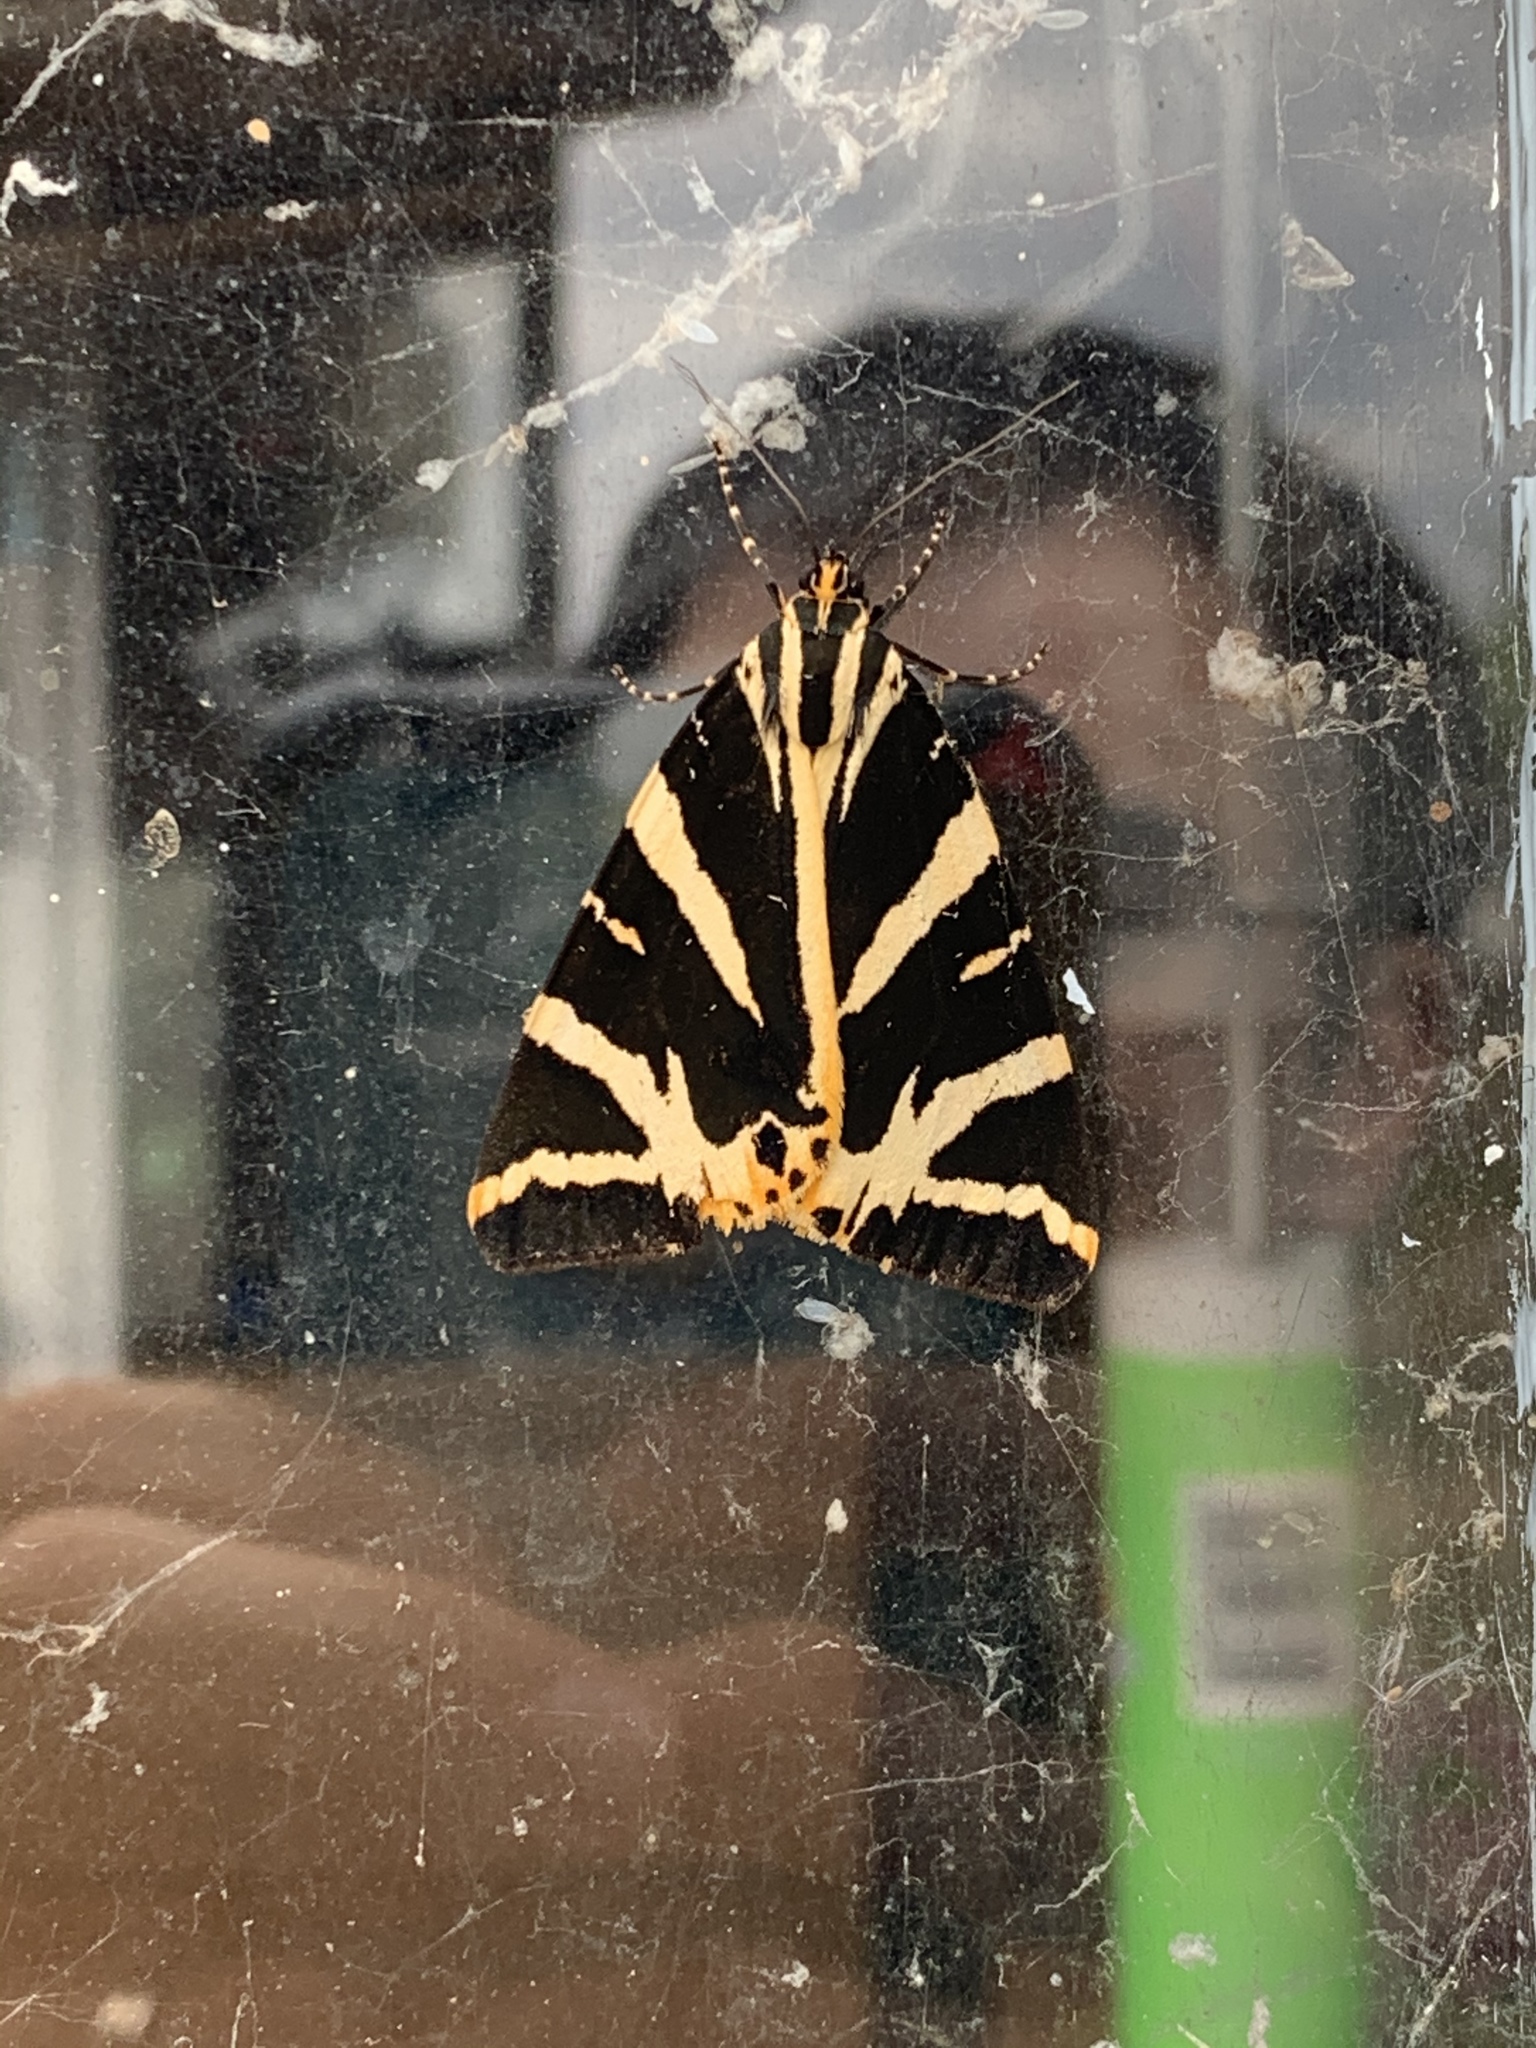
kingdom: Animalia
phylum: Arthropoda
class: Insecta
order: Lepidoptera
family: Erebidae
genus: Euplagia
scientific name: Euplagia quadripunctaria
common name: Jersey tiger
